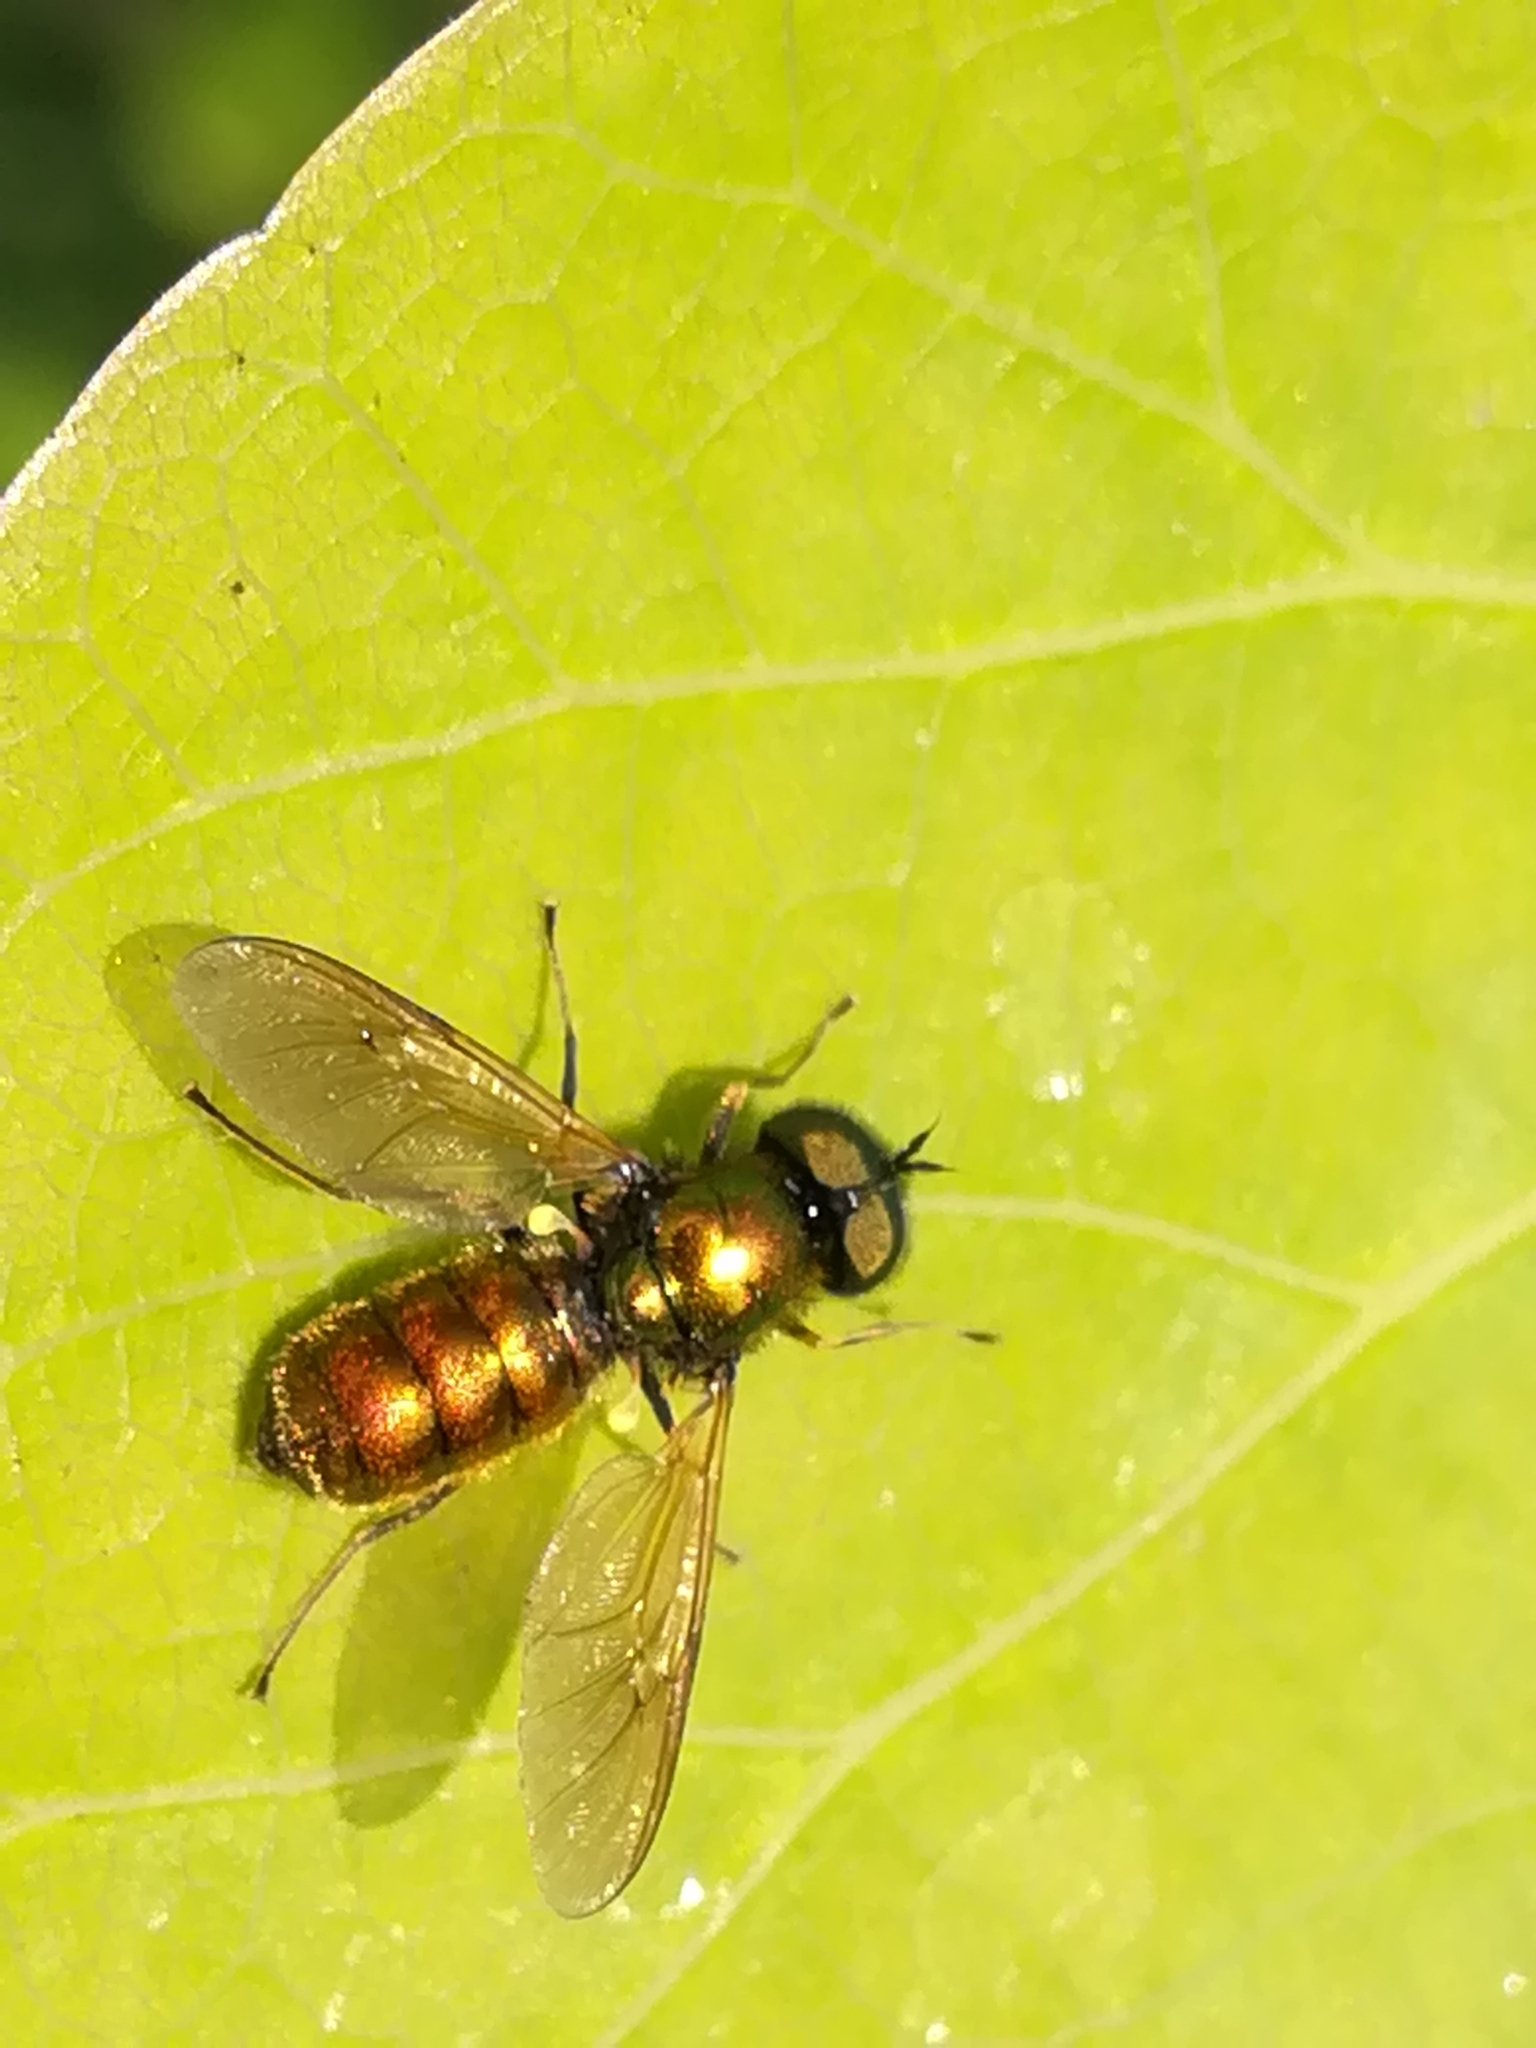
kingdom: Animalia
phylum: Arthropoda
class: Insecta
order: Diptera
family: Stratiomyidae
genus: Chloromyia
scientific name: Chloromyia formosa
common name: Soldier fly
